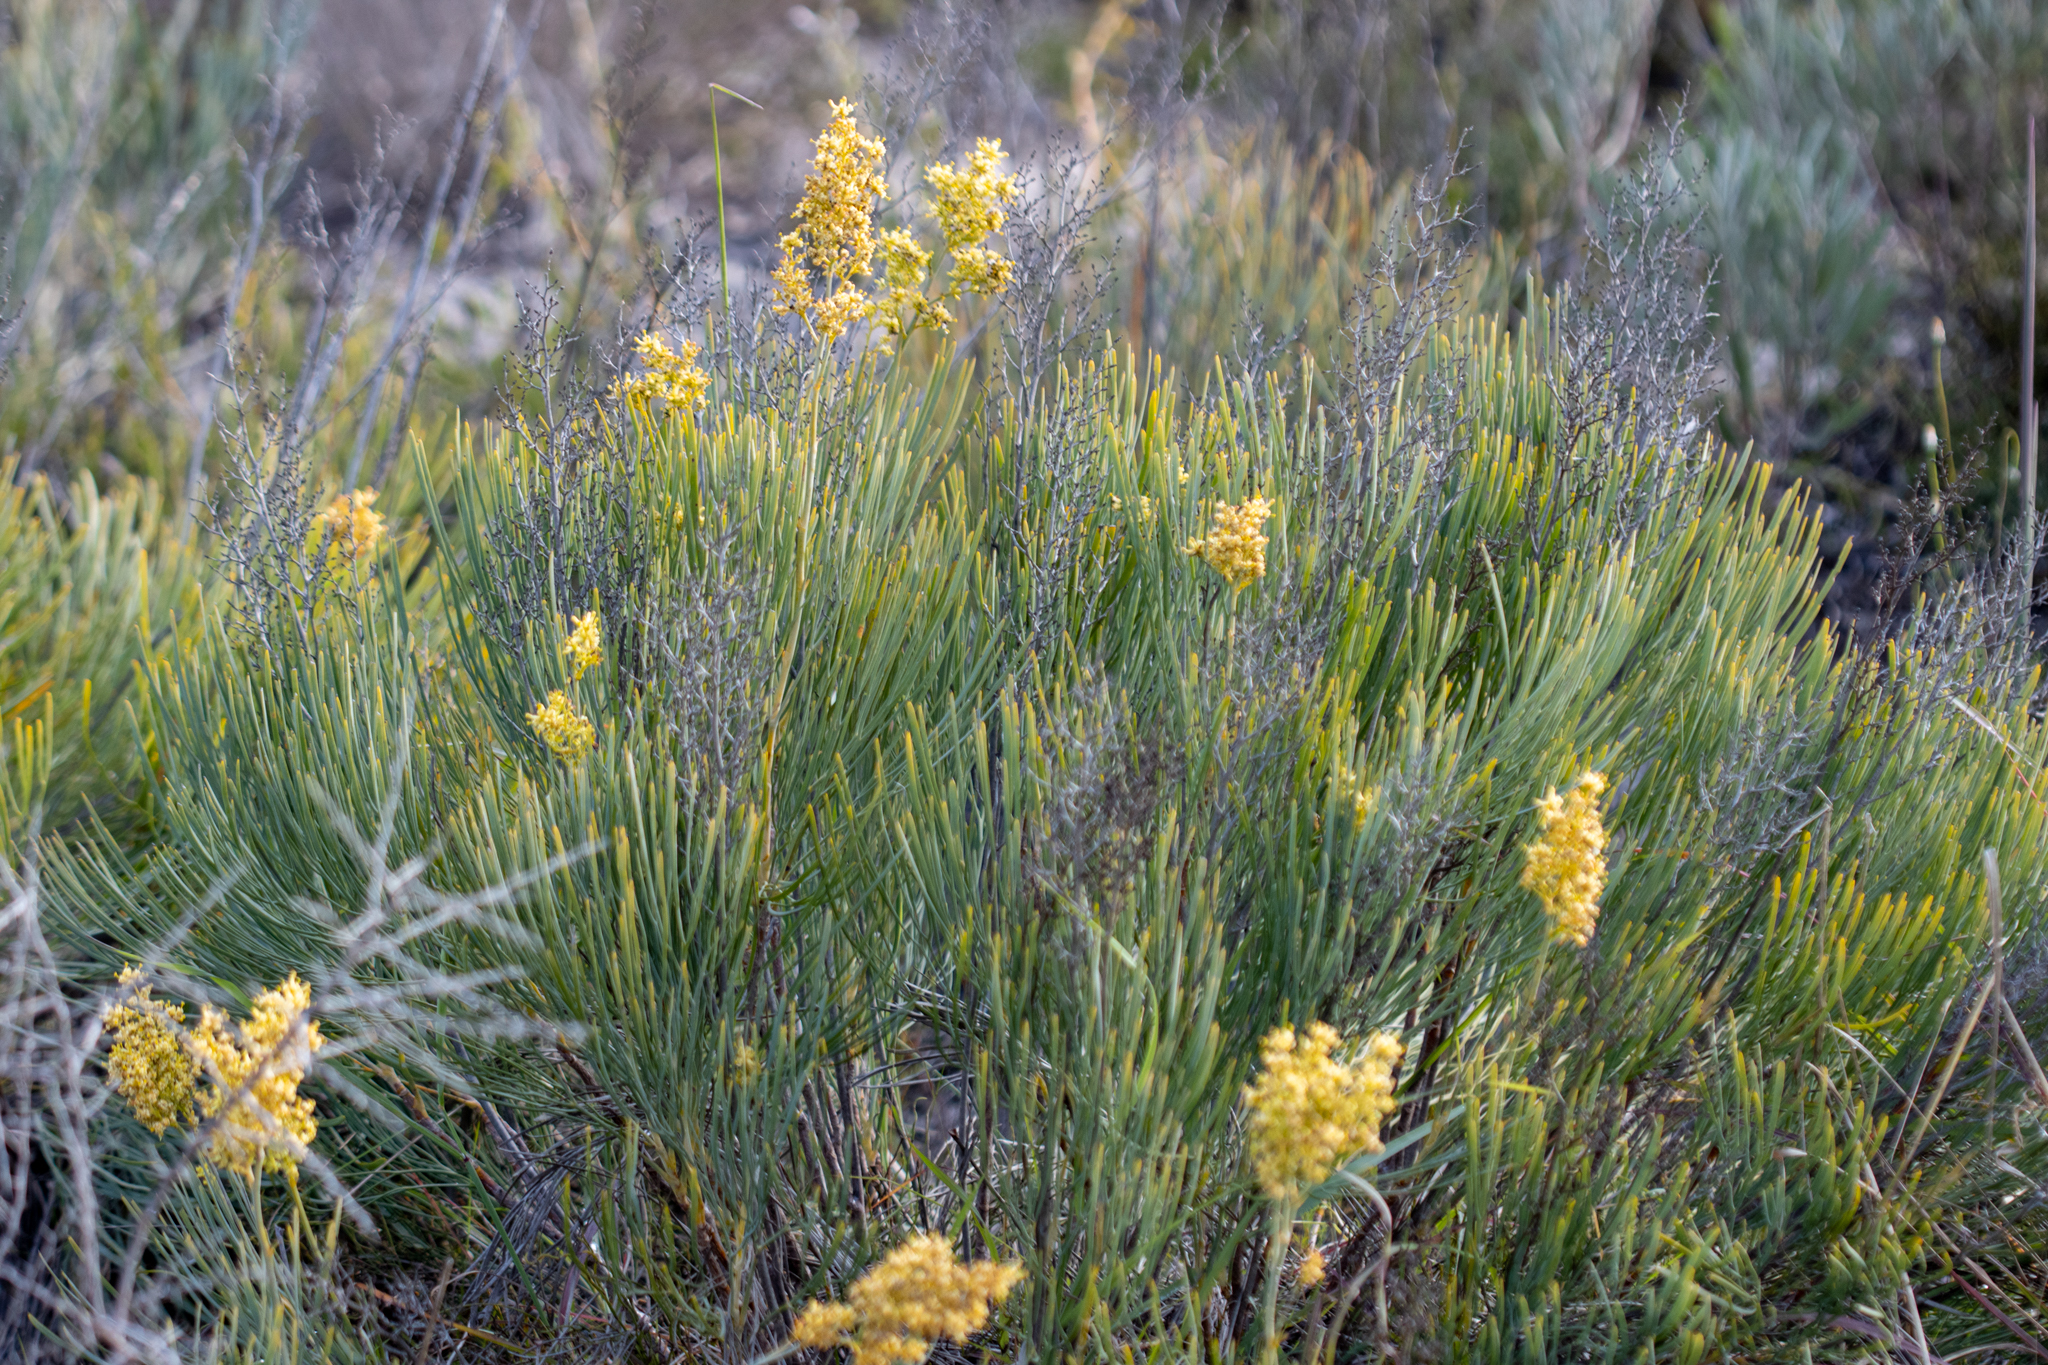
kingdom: Plantae
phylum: Tracheophyta
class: Magnoliopsida
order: Proteales
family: Proteaceae
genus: Stirlingia
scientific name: Stirlingia latifolia
